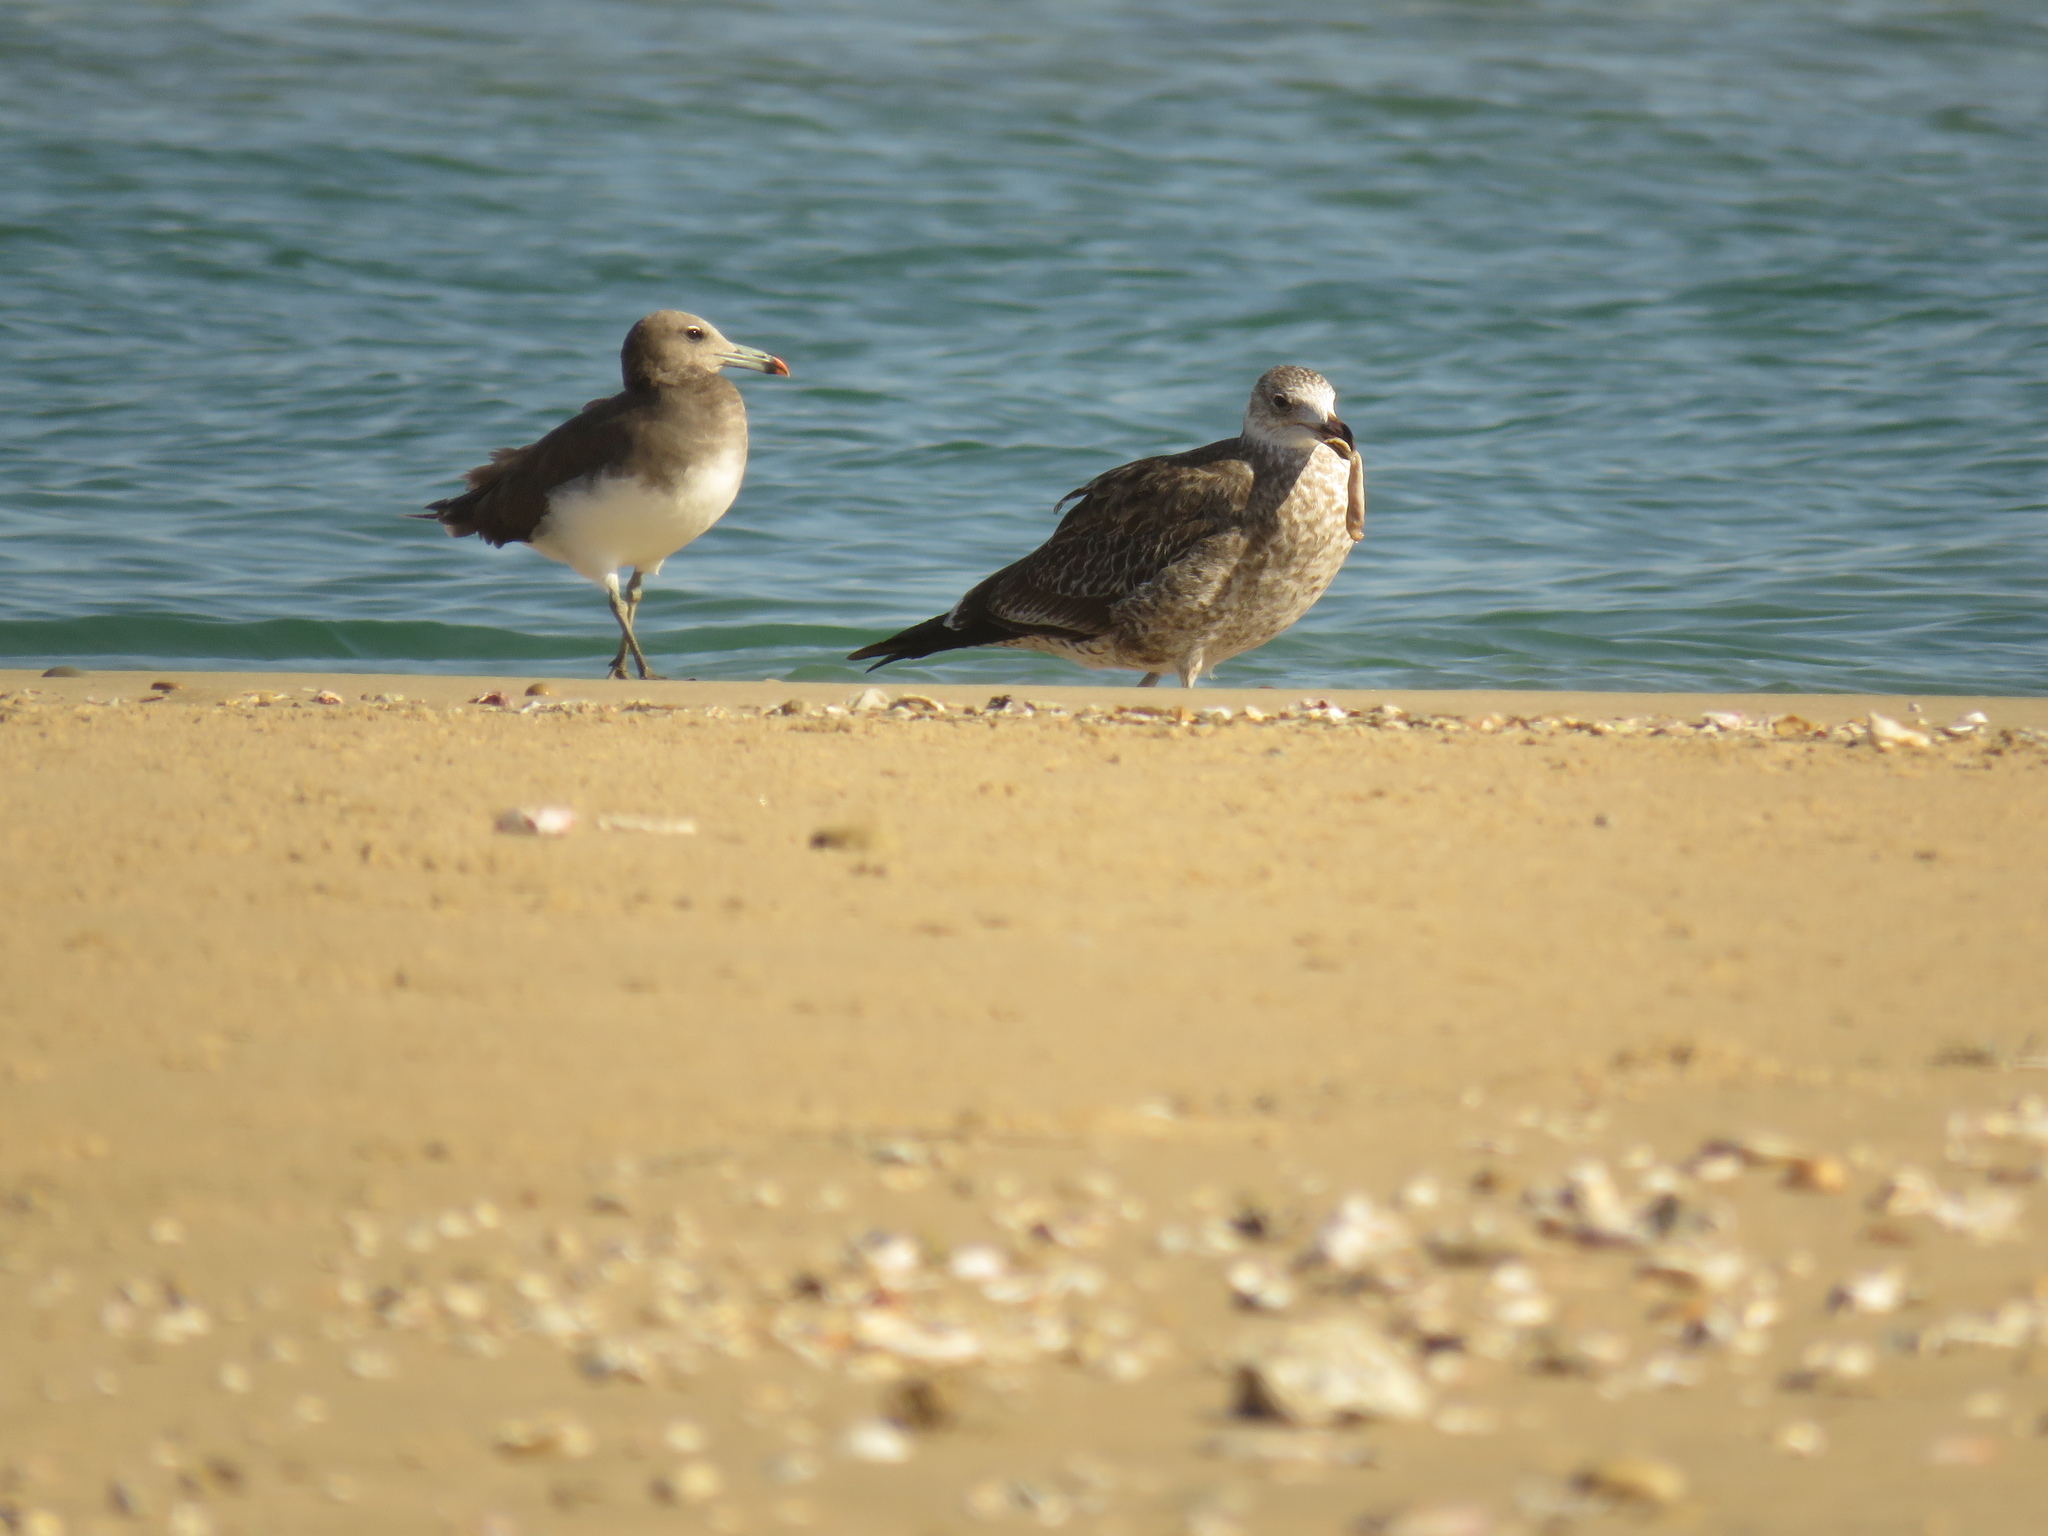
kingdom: Animalia
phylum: Chordata
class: Aves
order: Charadriiformes
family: Laridae
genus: Larus
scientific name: Larus dominicanus
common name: Kelp gull
